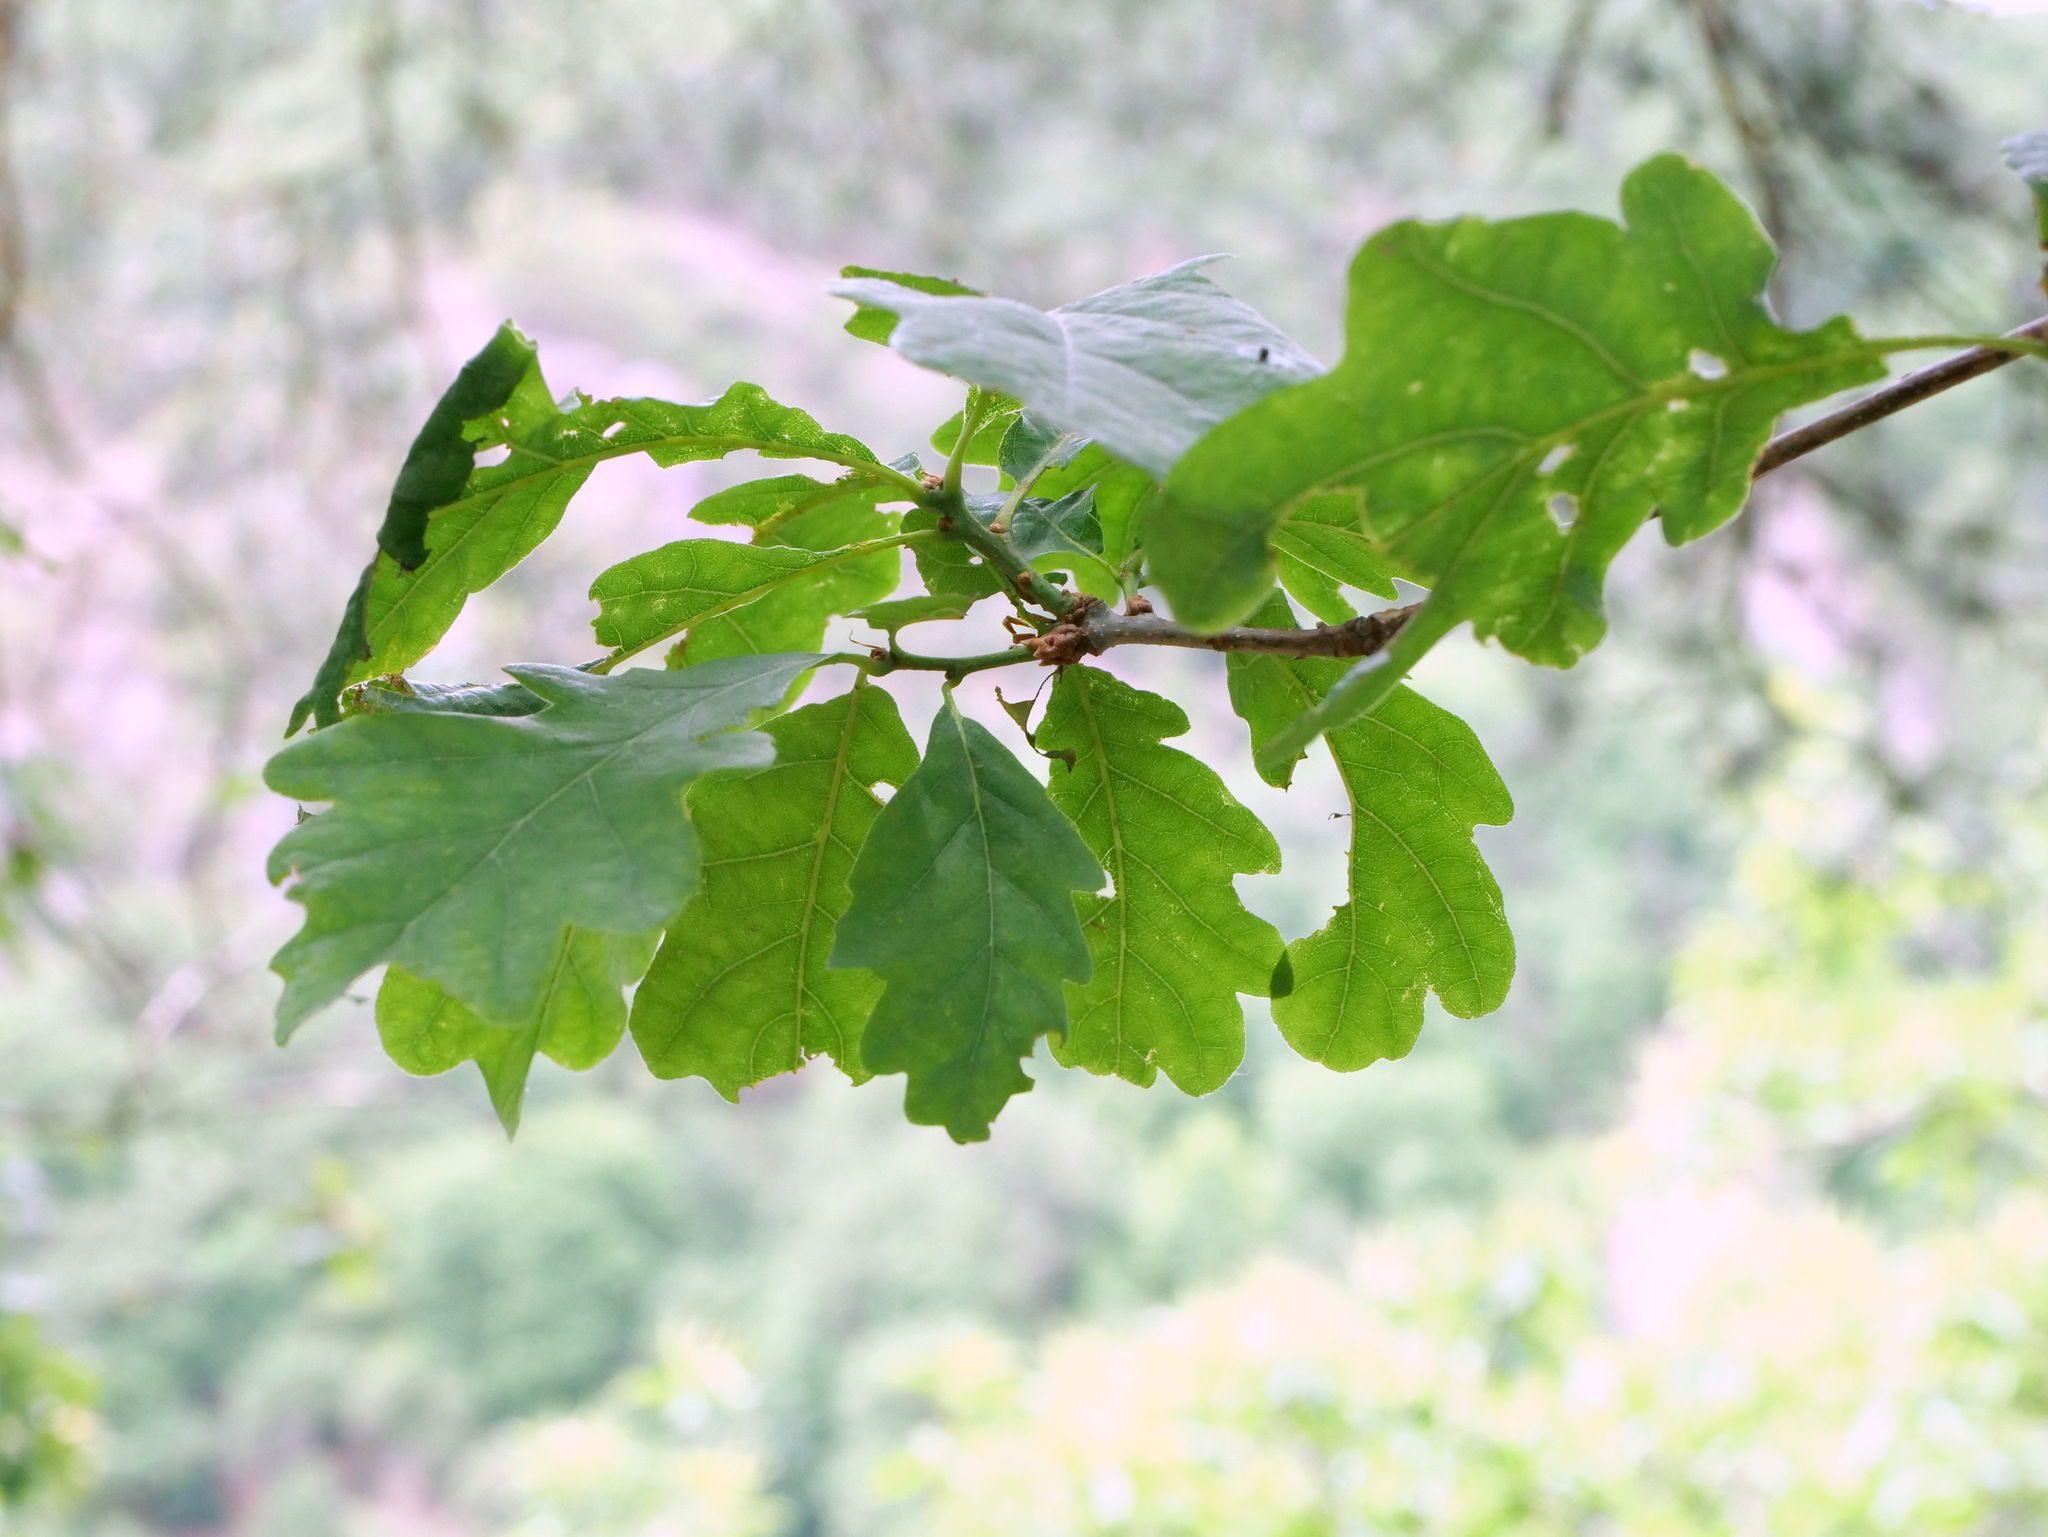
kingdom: Plantae
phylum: Tracheophyta
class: Magnoliopsida
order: Fagales
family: Fagaceae
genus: Quercus
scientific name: Quercus petraea
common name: Sessile oak
